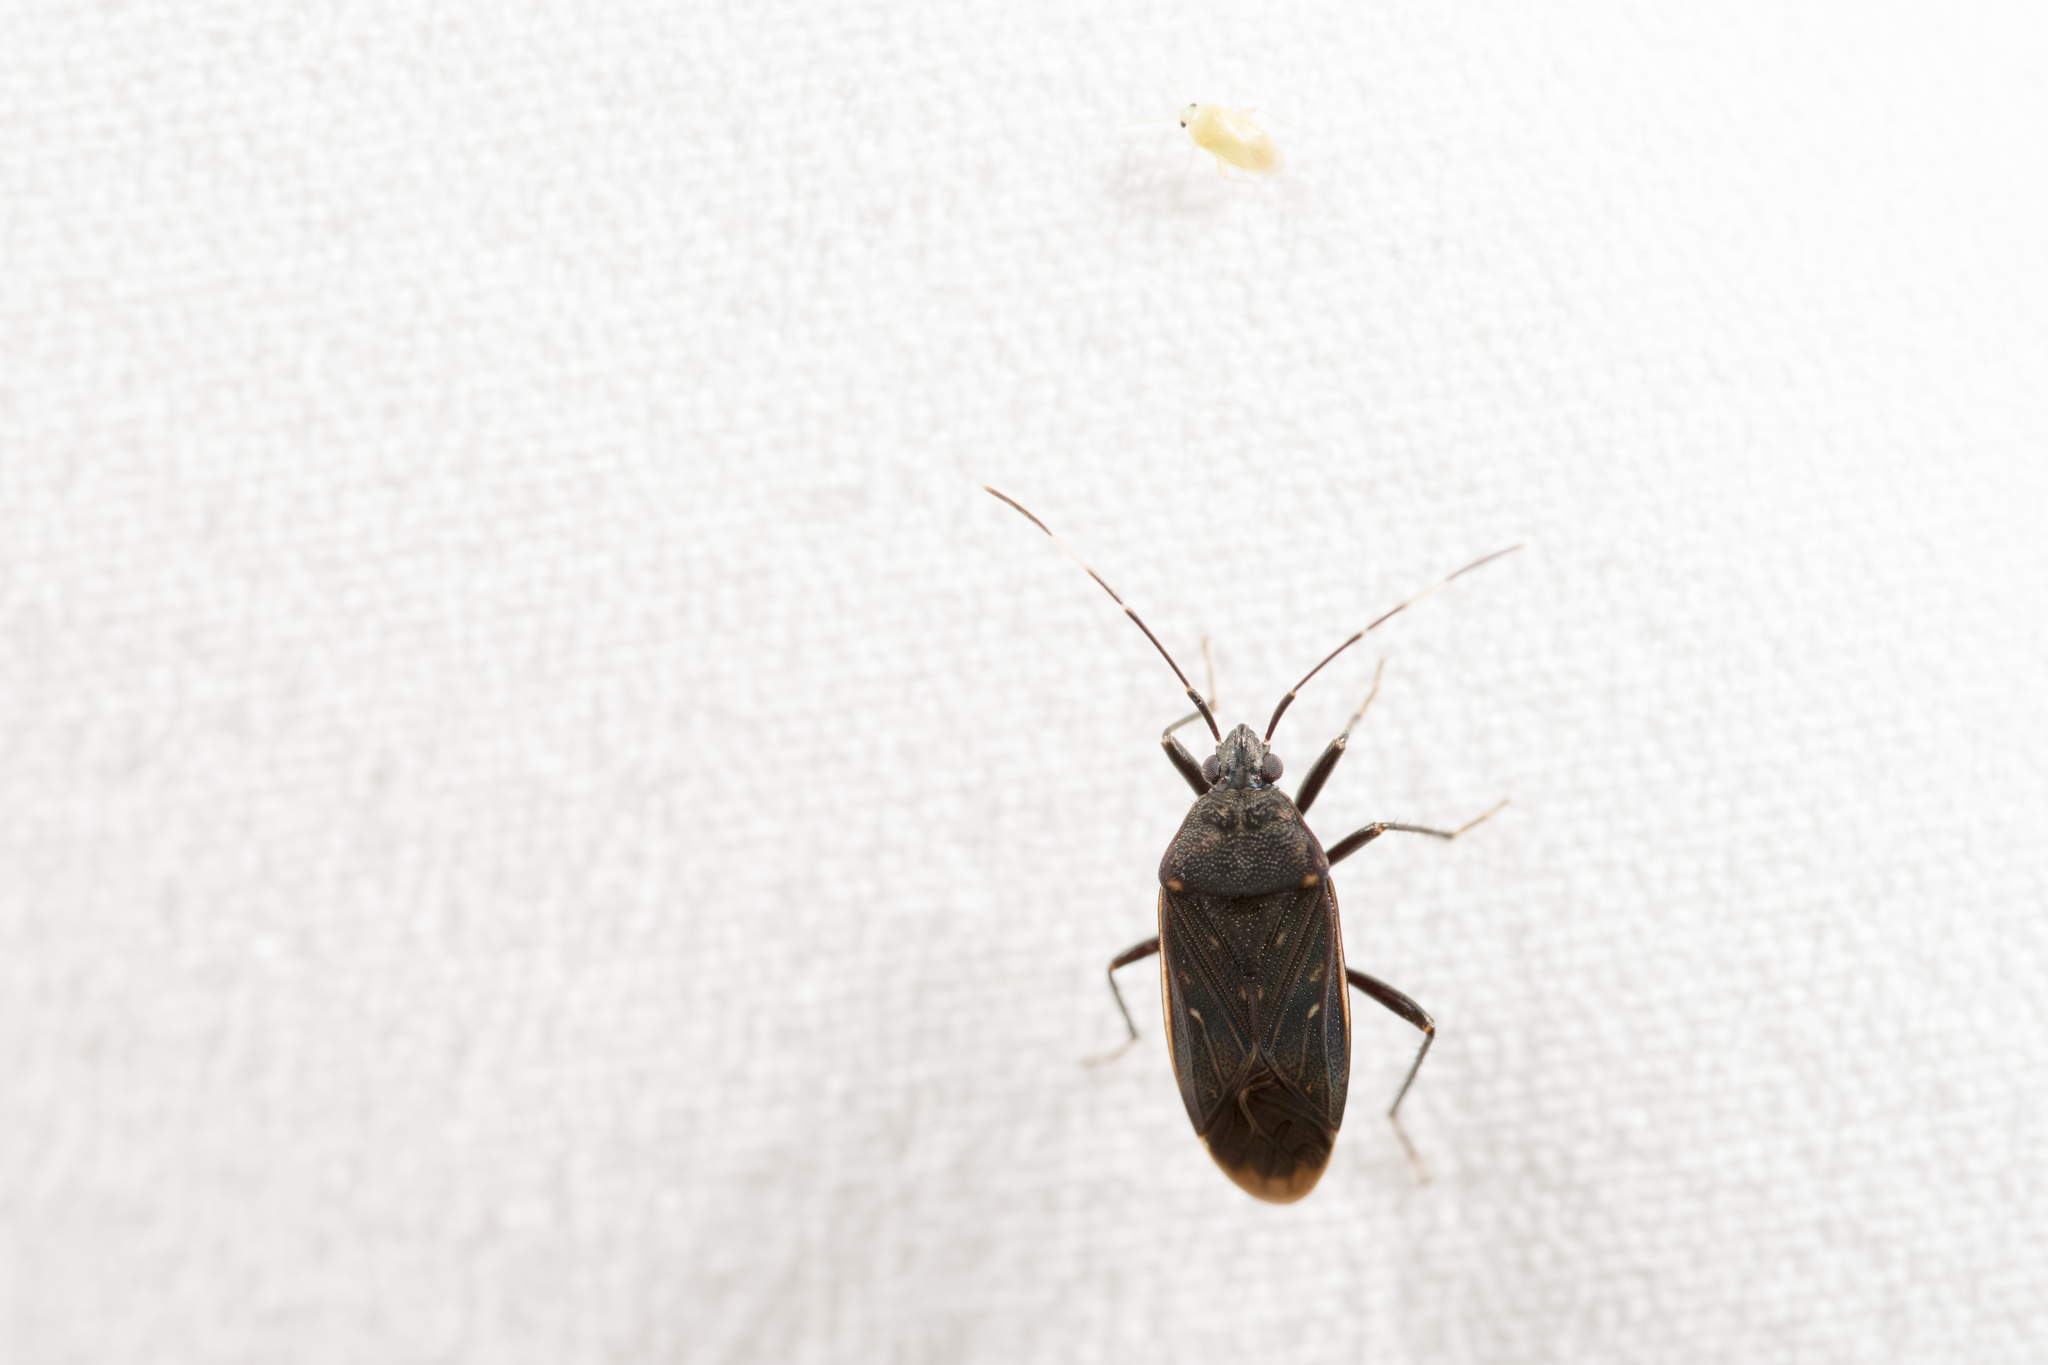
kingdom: Animalia
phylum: Arthropoda
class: Insecta
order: Hemiptera
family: Rhyparochromidae
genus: Neolethaeus
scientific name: Neolethaeus assamensis
